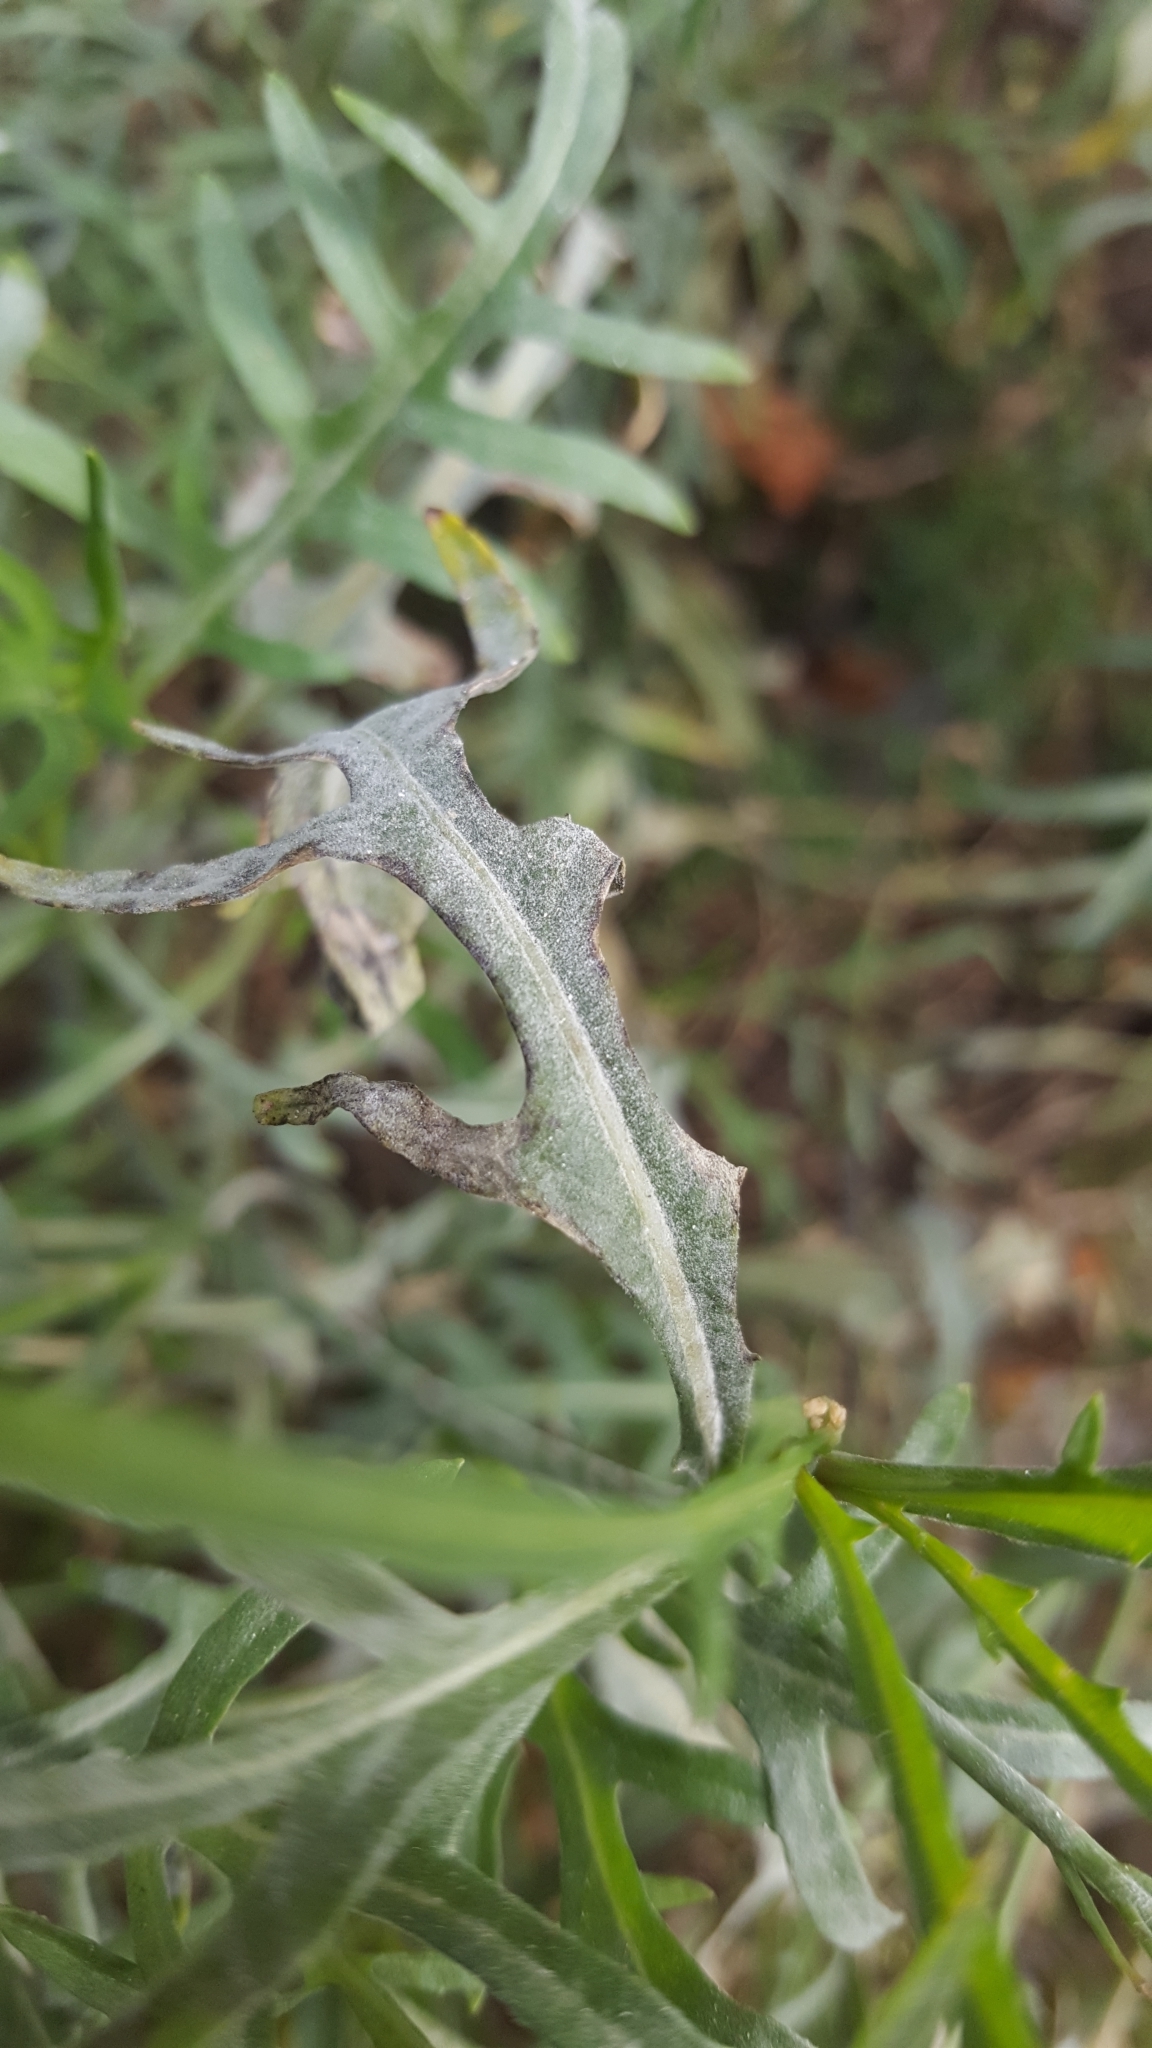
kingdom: Fungi
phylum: Ascomycota
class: Leotiomycetes
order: Helotiales
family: Erysiphaceae
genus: Erysiphe
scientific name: Erysiphe cruciferarum
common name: Brassica powdery mildew
